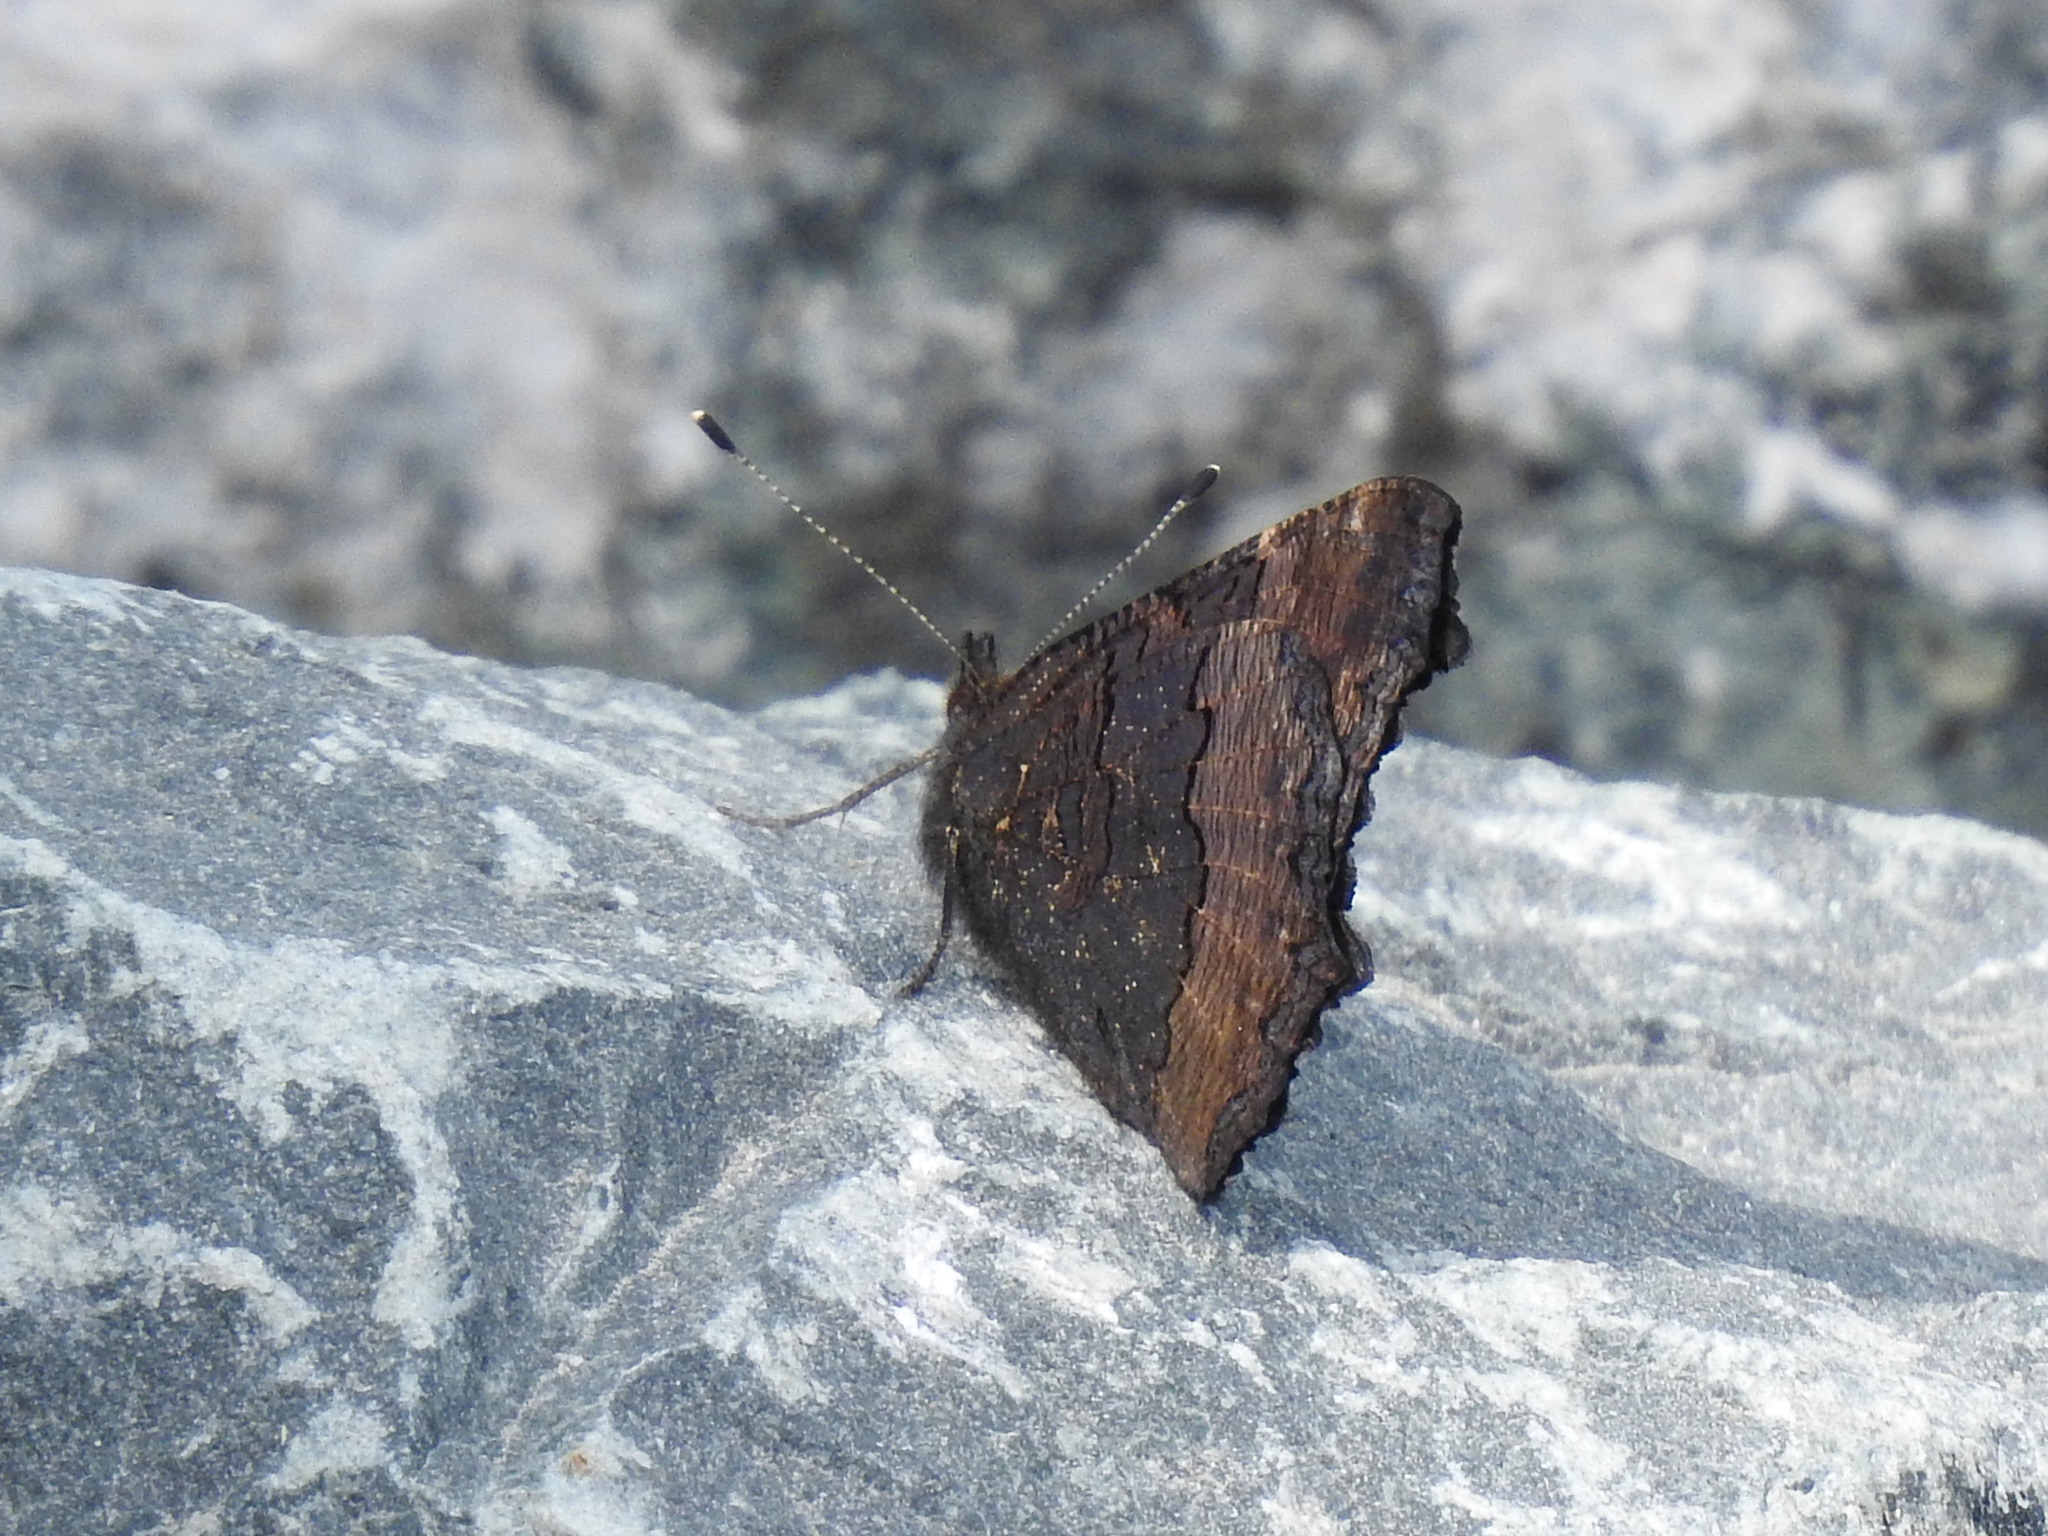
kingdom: Animalia
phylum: Arthropoda
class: Insecta
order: Lepidoptera
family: Nymphalidae
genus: Aglais
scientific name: Aglais milberti
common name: Milbert's tortoiseshell
